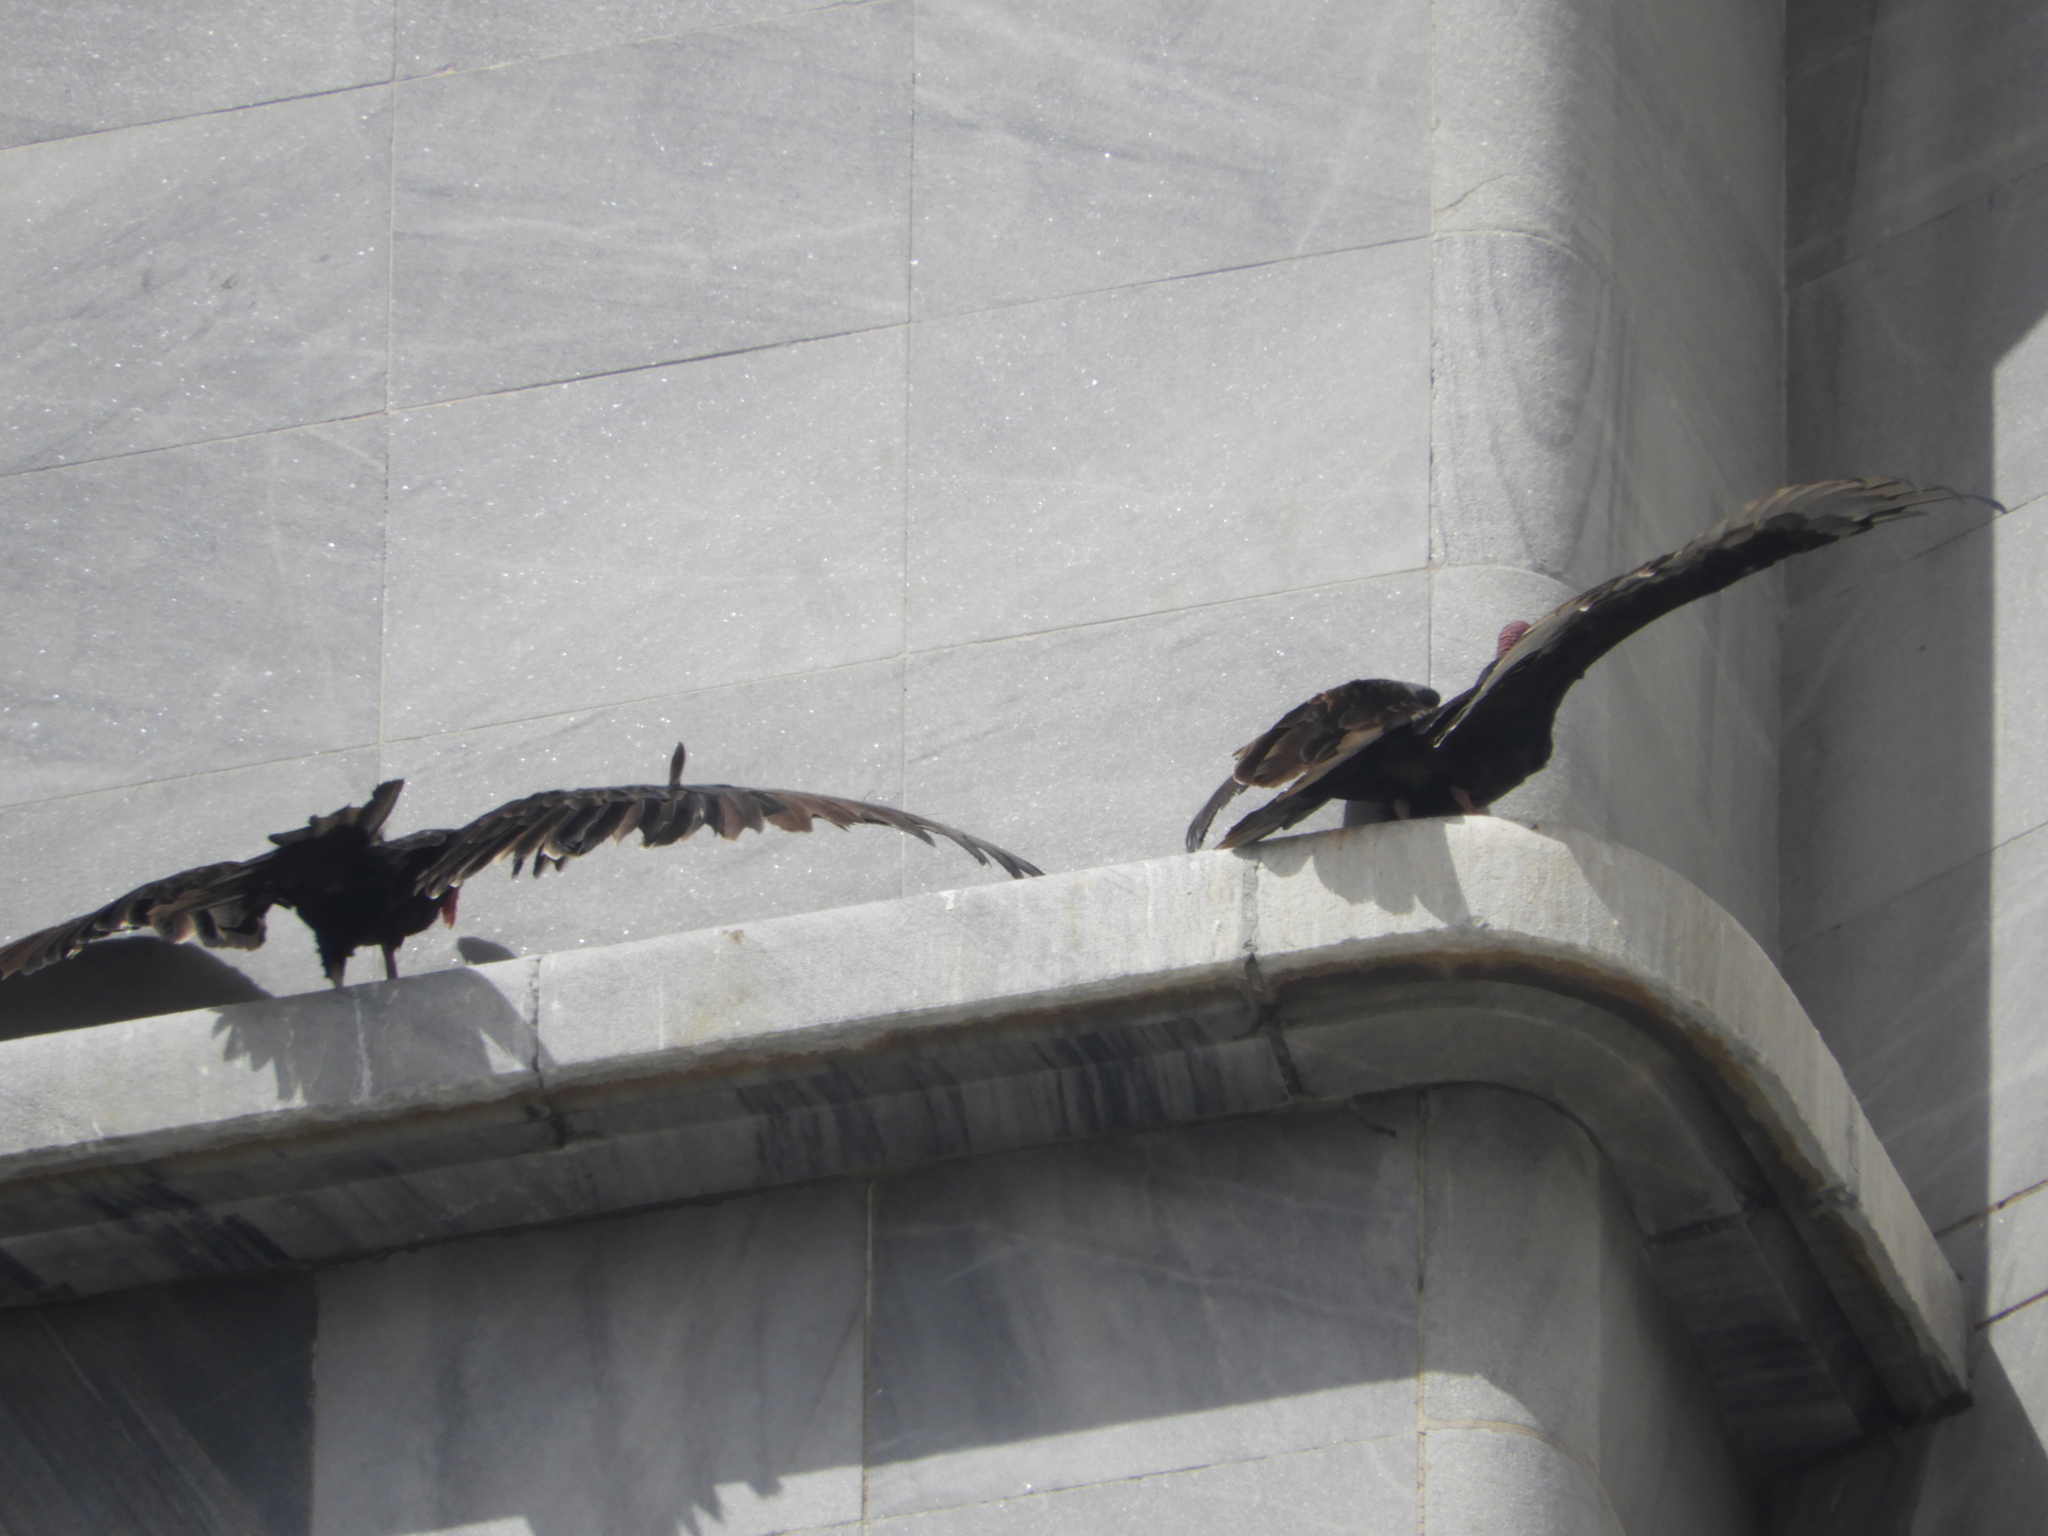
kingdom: Animalia
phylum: Chordata
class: Aves
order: Accipitriformes
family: Cathartidae
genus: Cathartes
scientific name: Cathartes aura
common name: Turkey vulture
